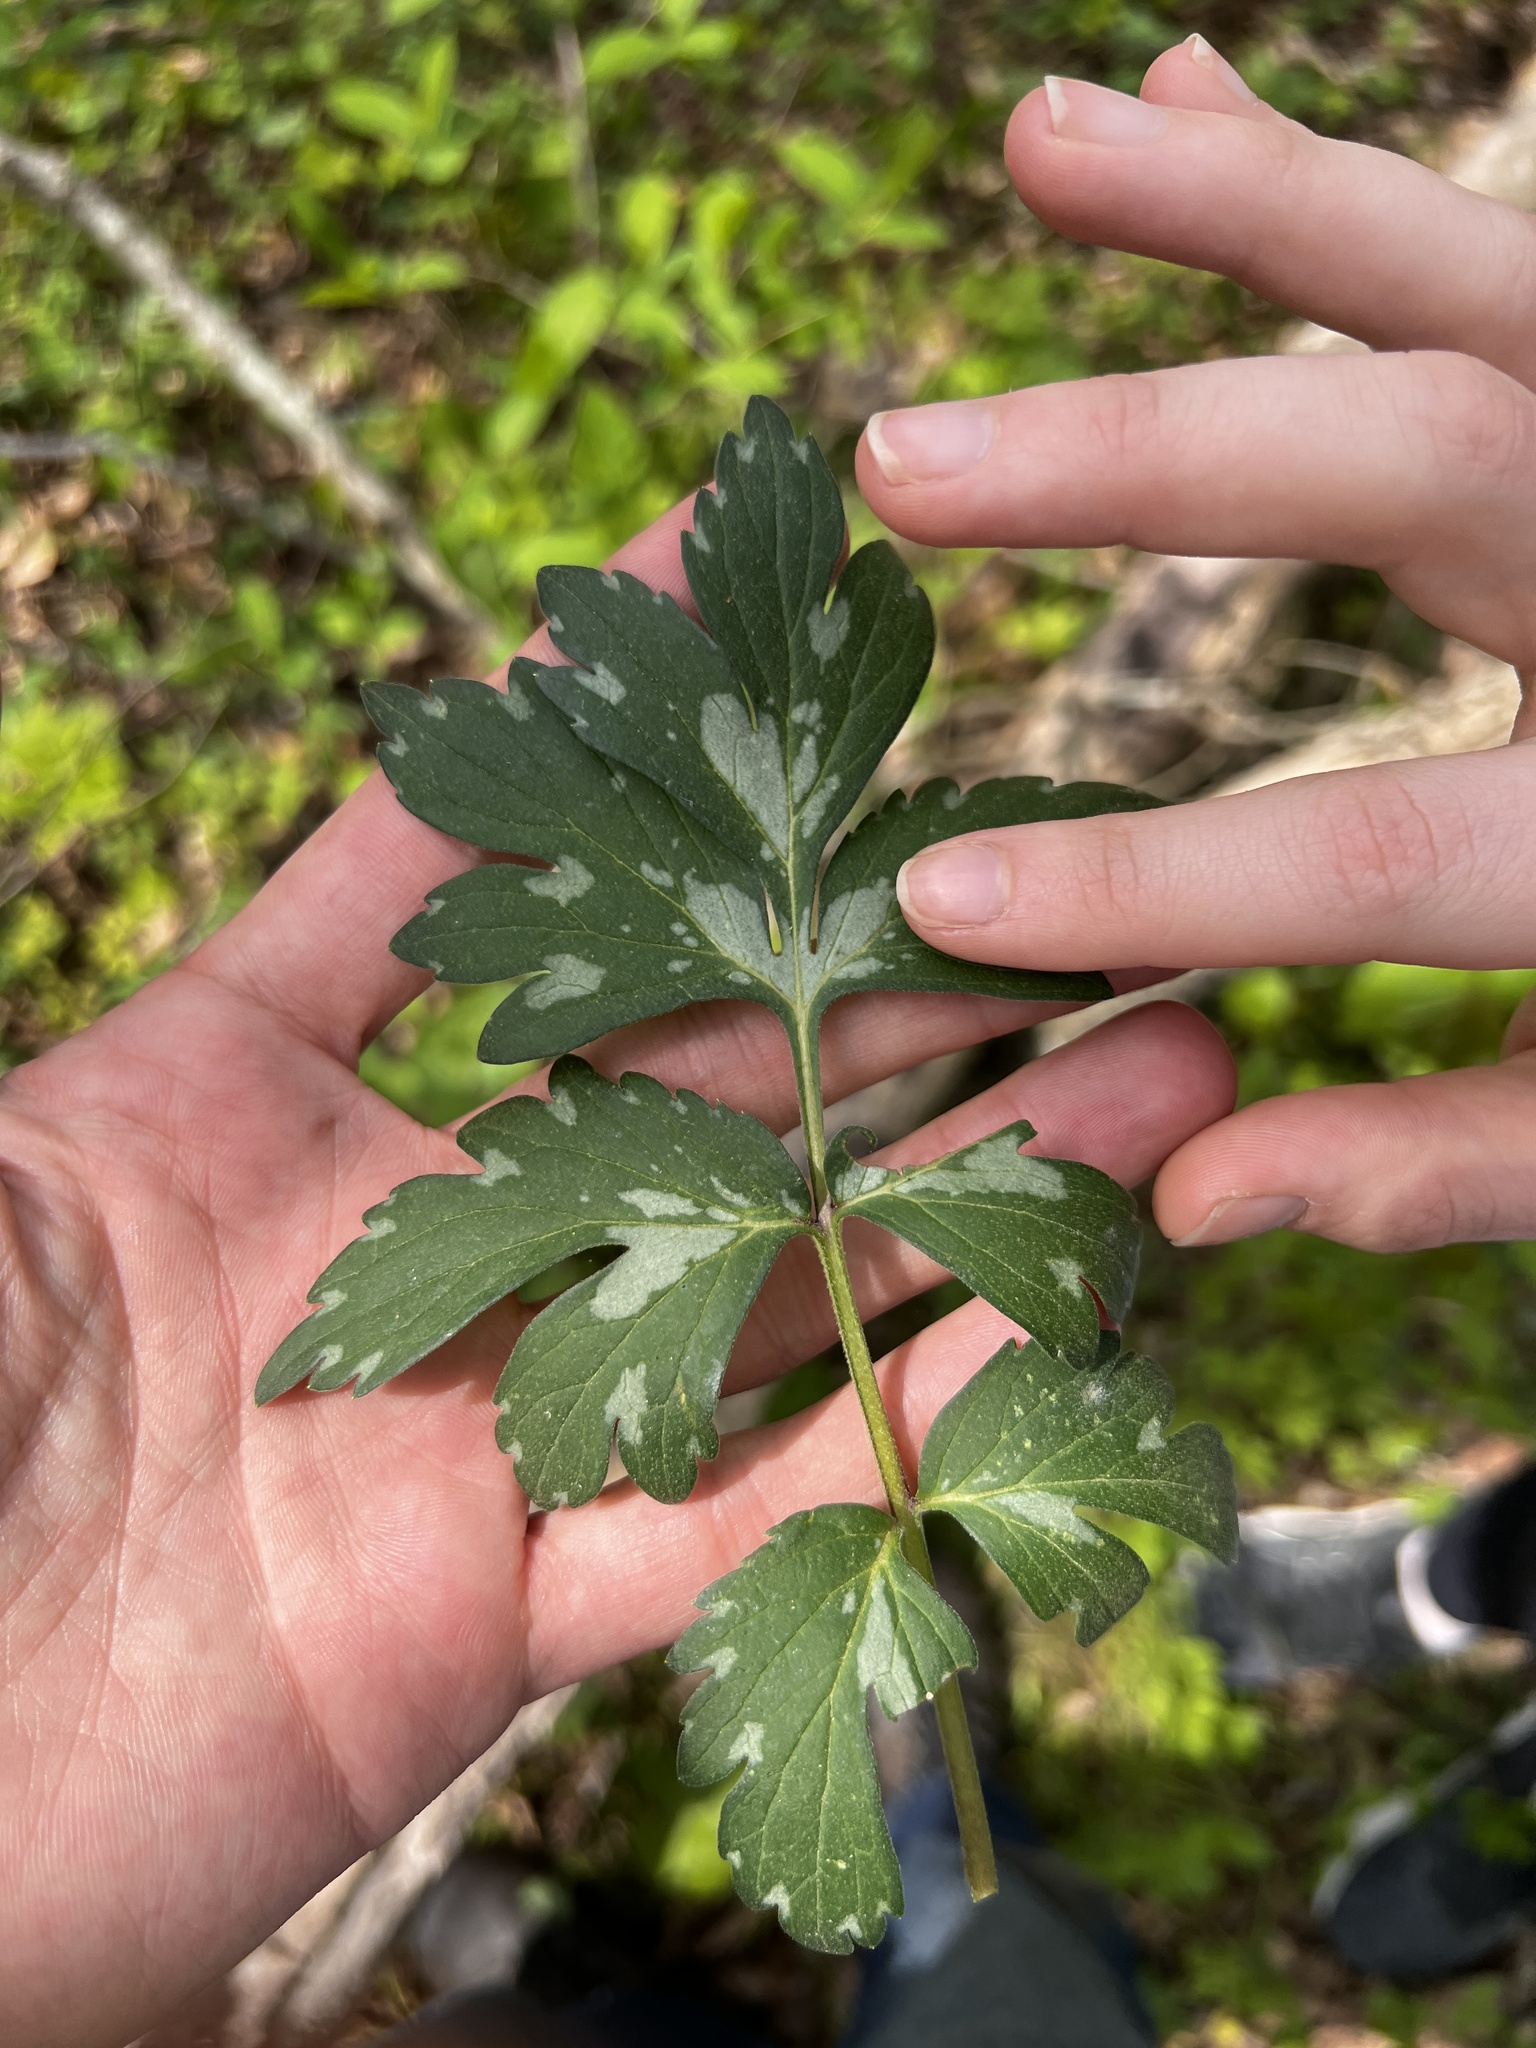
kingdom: Plantae
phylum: Tracheophyta
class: Magnoliopsida
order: Boraginales
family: Hydrophyllaceae
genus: Hydrophyllum
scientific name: Hydrophyllum virginianum
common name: Virginia waterleaf
